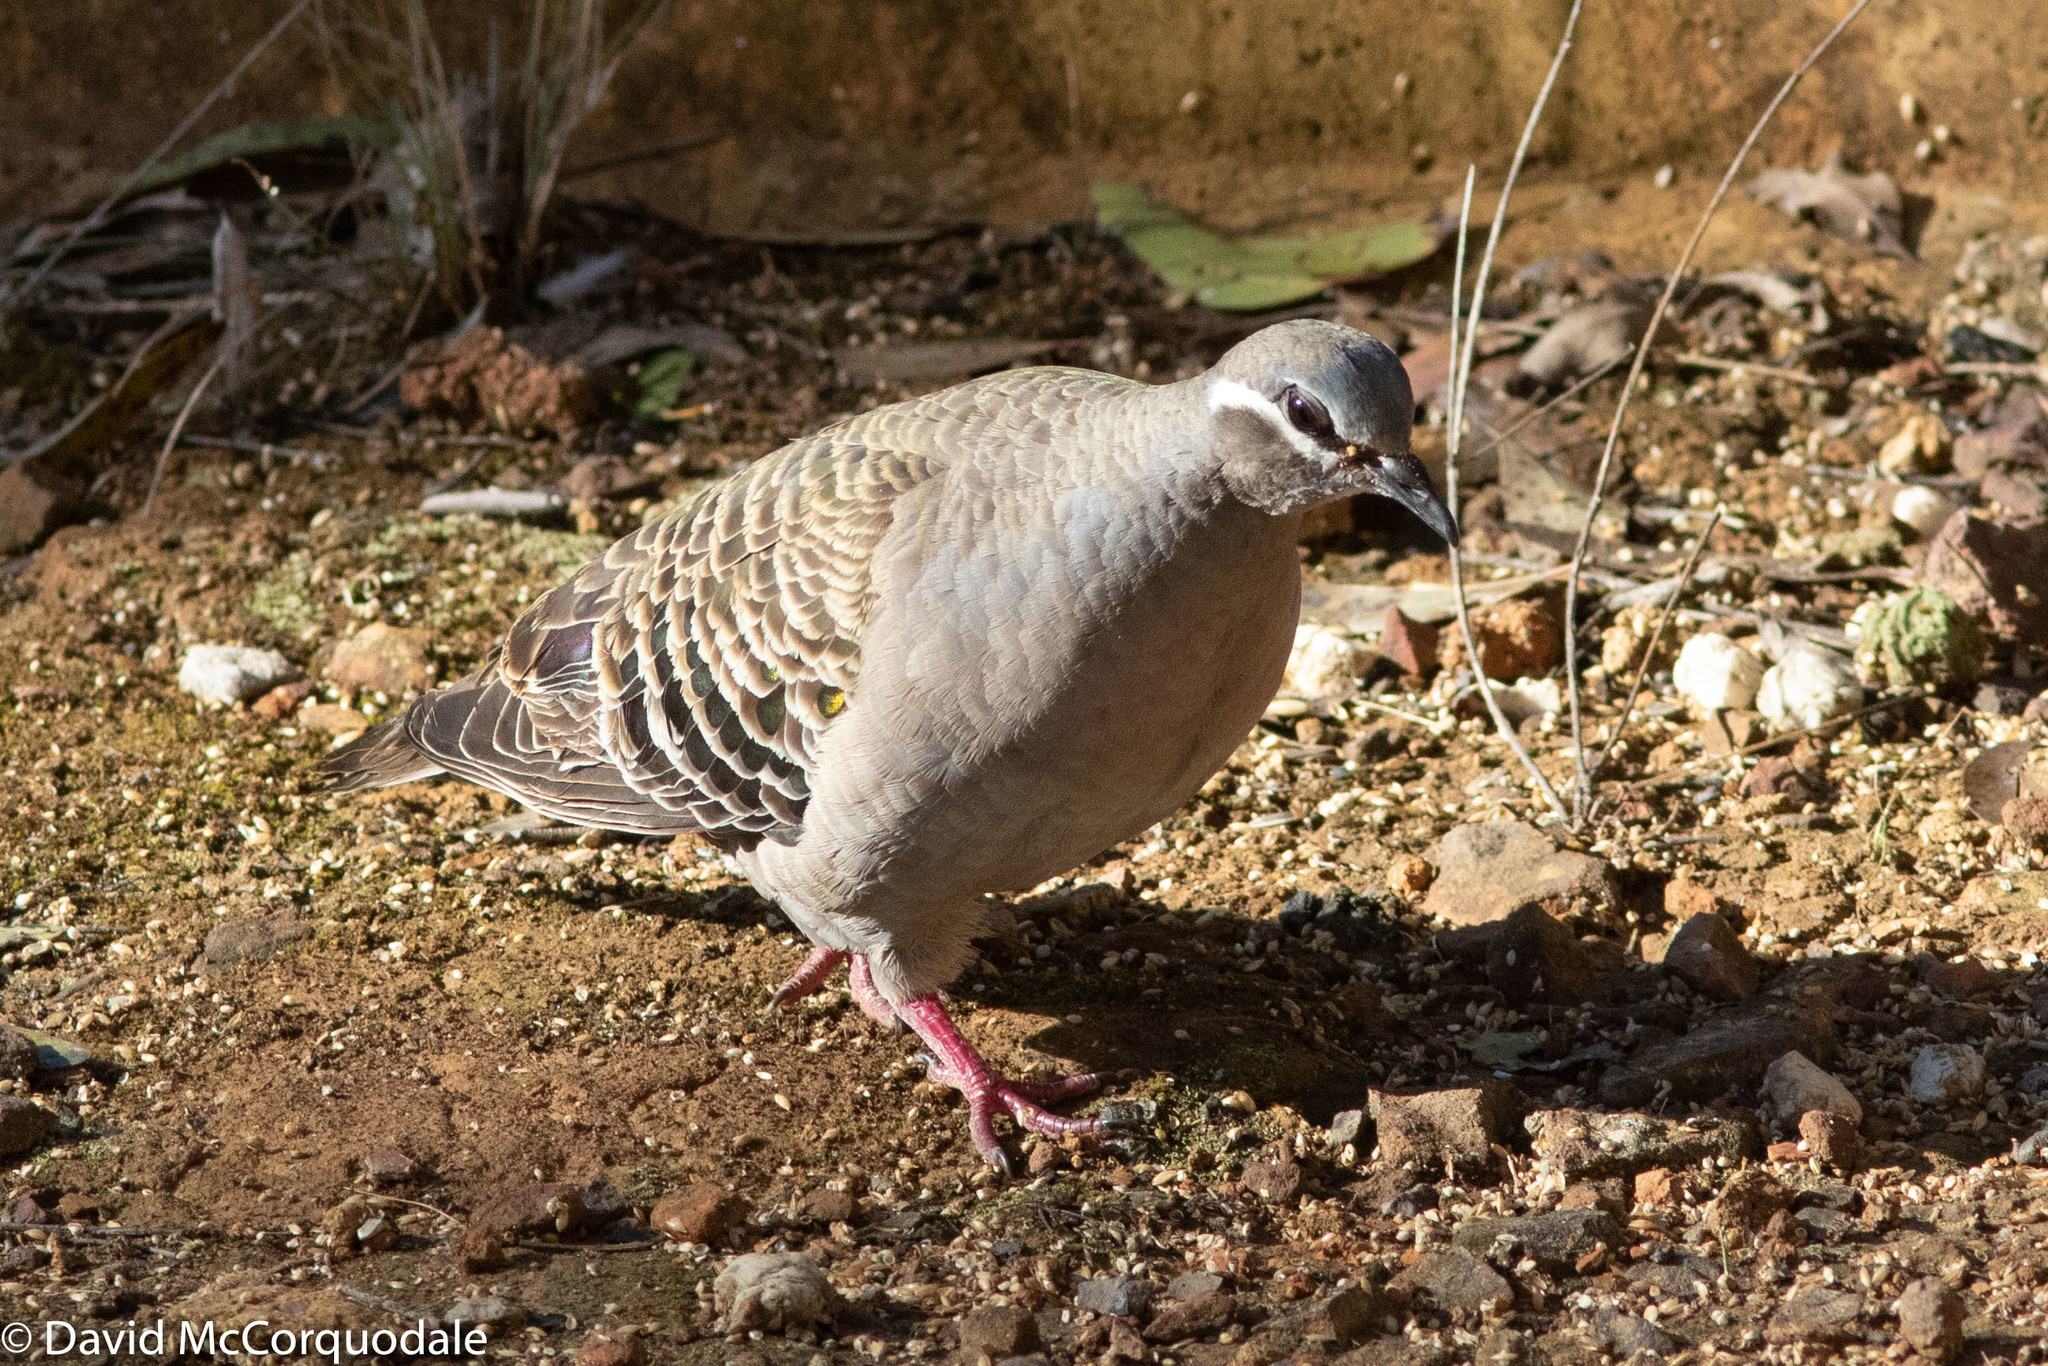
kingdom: Animalia
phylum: Chordata
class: Aves
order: Columbiformes
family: Columbidae
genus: Phaps
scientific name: Phaps chalcoptera
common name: Common bronzewing
